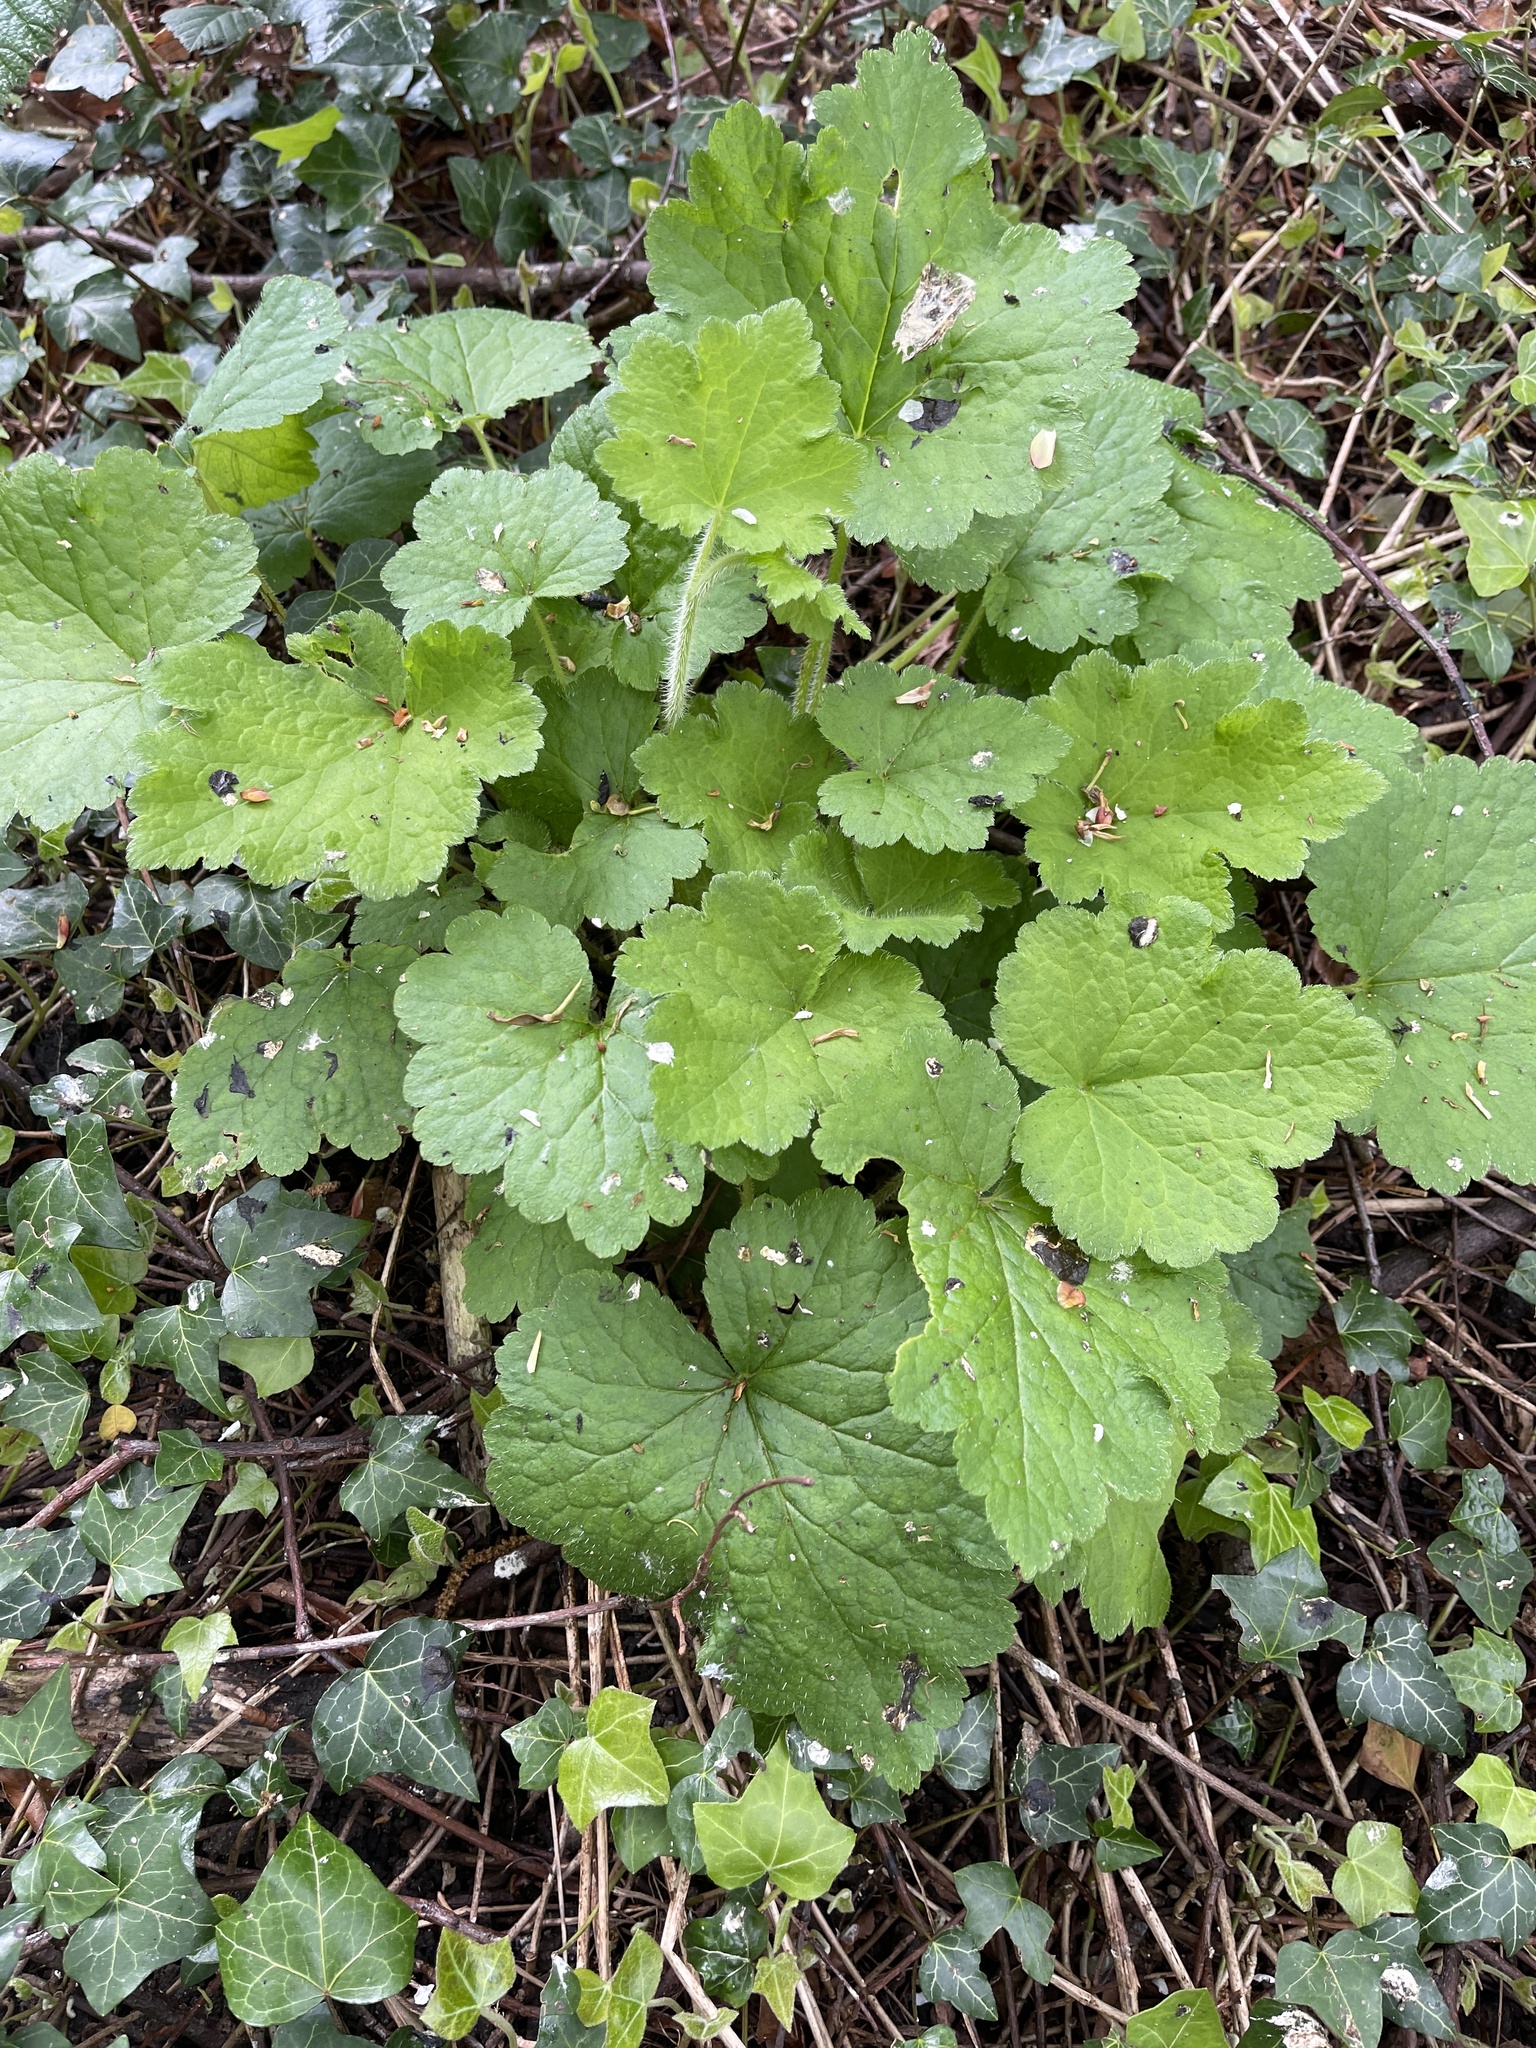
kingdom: Plantae
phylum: Tracheophyta
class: Magnoliopsida
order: Saxifragales
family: Saxifragaceae
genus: Tellima
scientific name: Tellima grandiflora
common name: Fringecups
